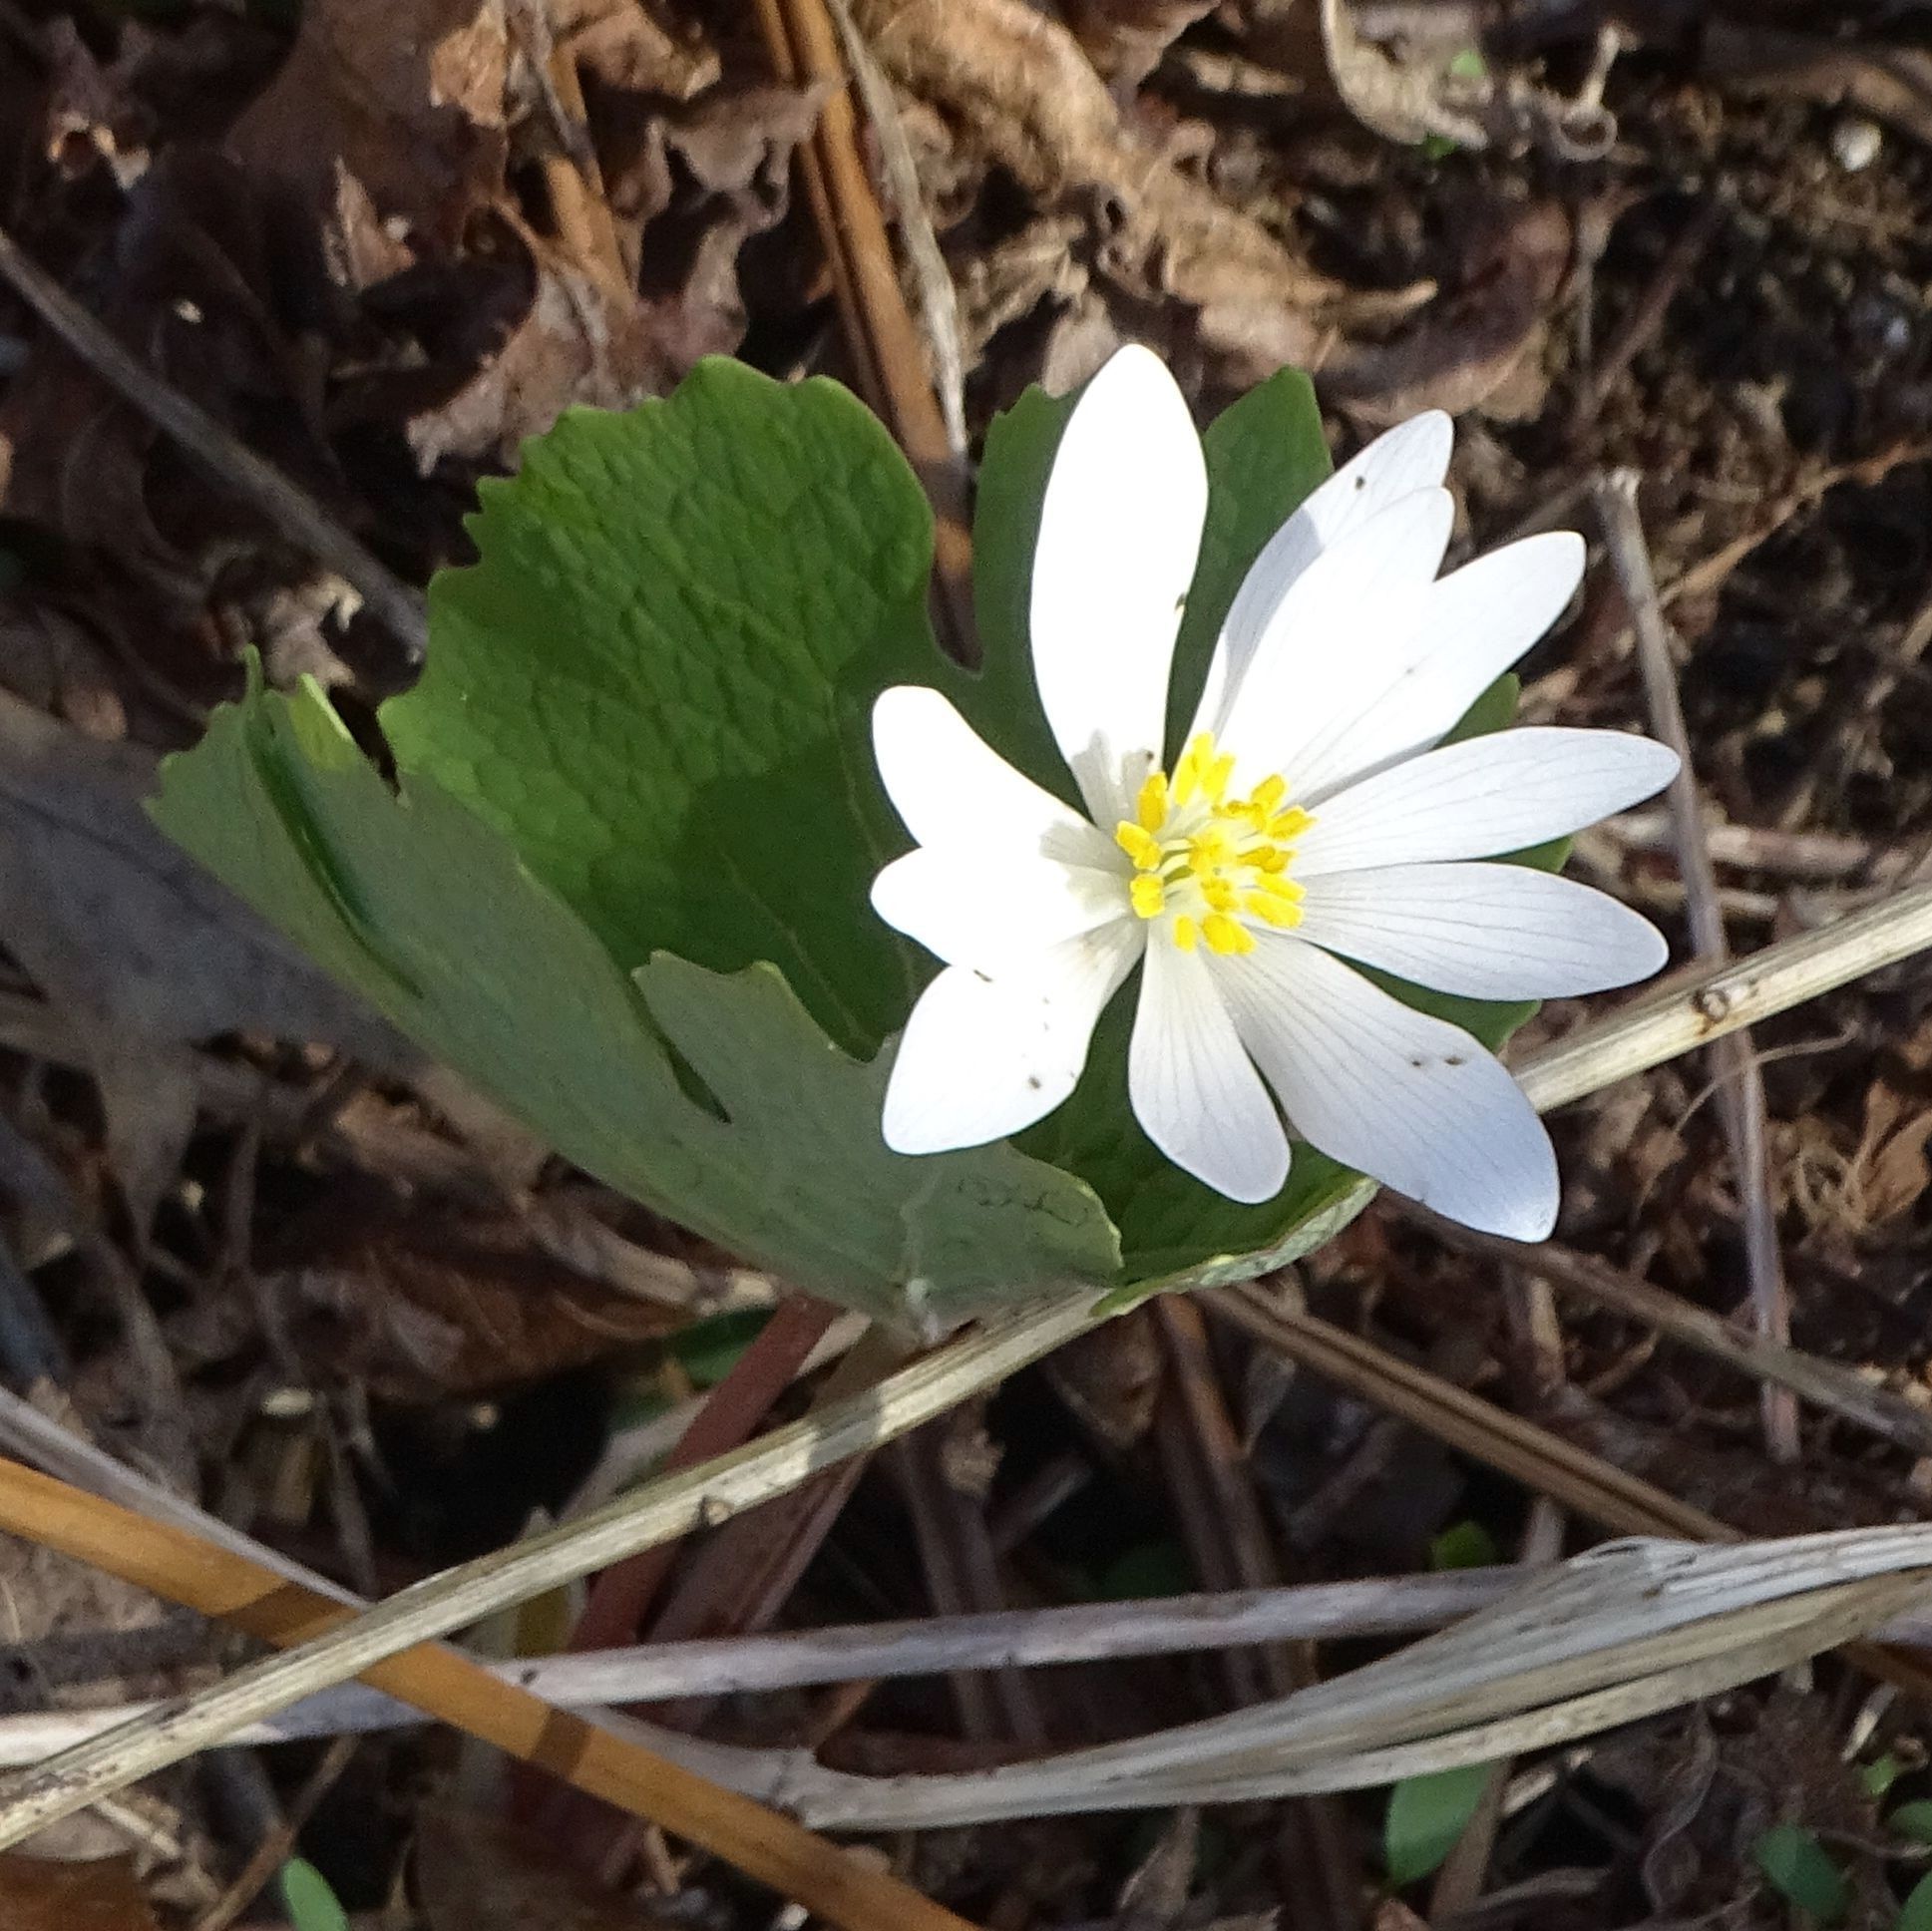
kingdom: Plantae
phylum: Tracheophyta
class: Magnoliopsida
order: Ranunculales
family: Papaveraceae
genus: Sanguinaria
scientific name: Sanguinaria canadensis
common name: Bloodroot
